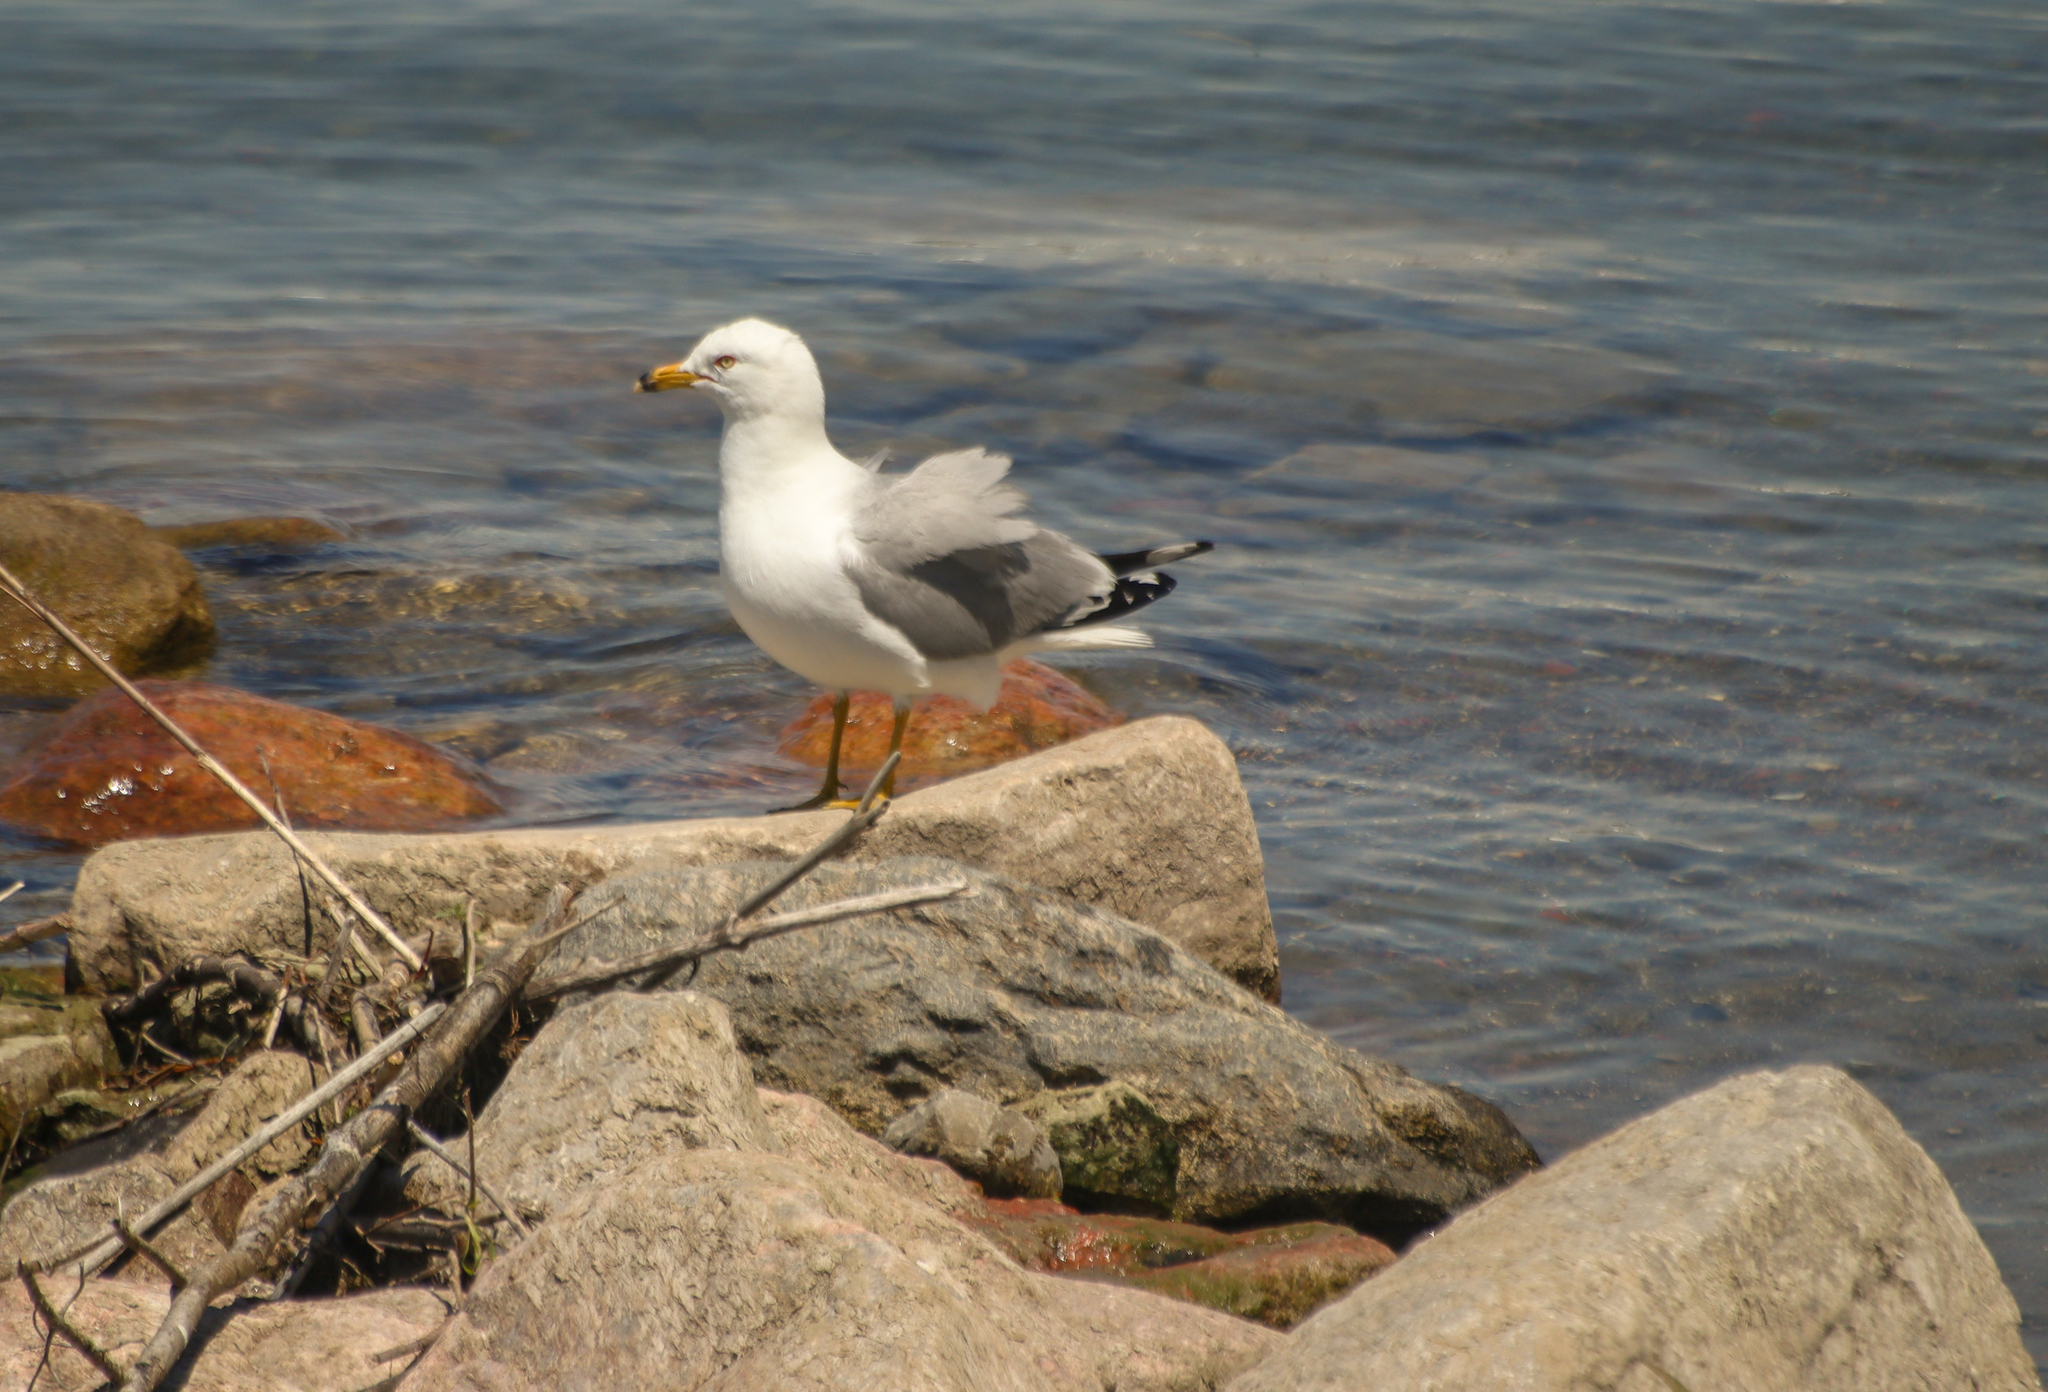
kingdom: Animalia
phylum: Chordata
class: Aves
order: Charadriiformes
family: Laridae
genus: Larus
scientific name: Larus delawarensis
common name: Ring-billed gull
